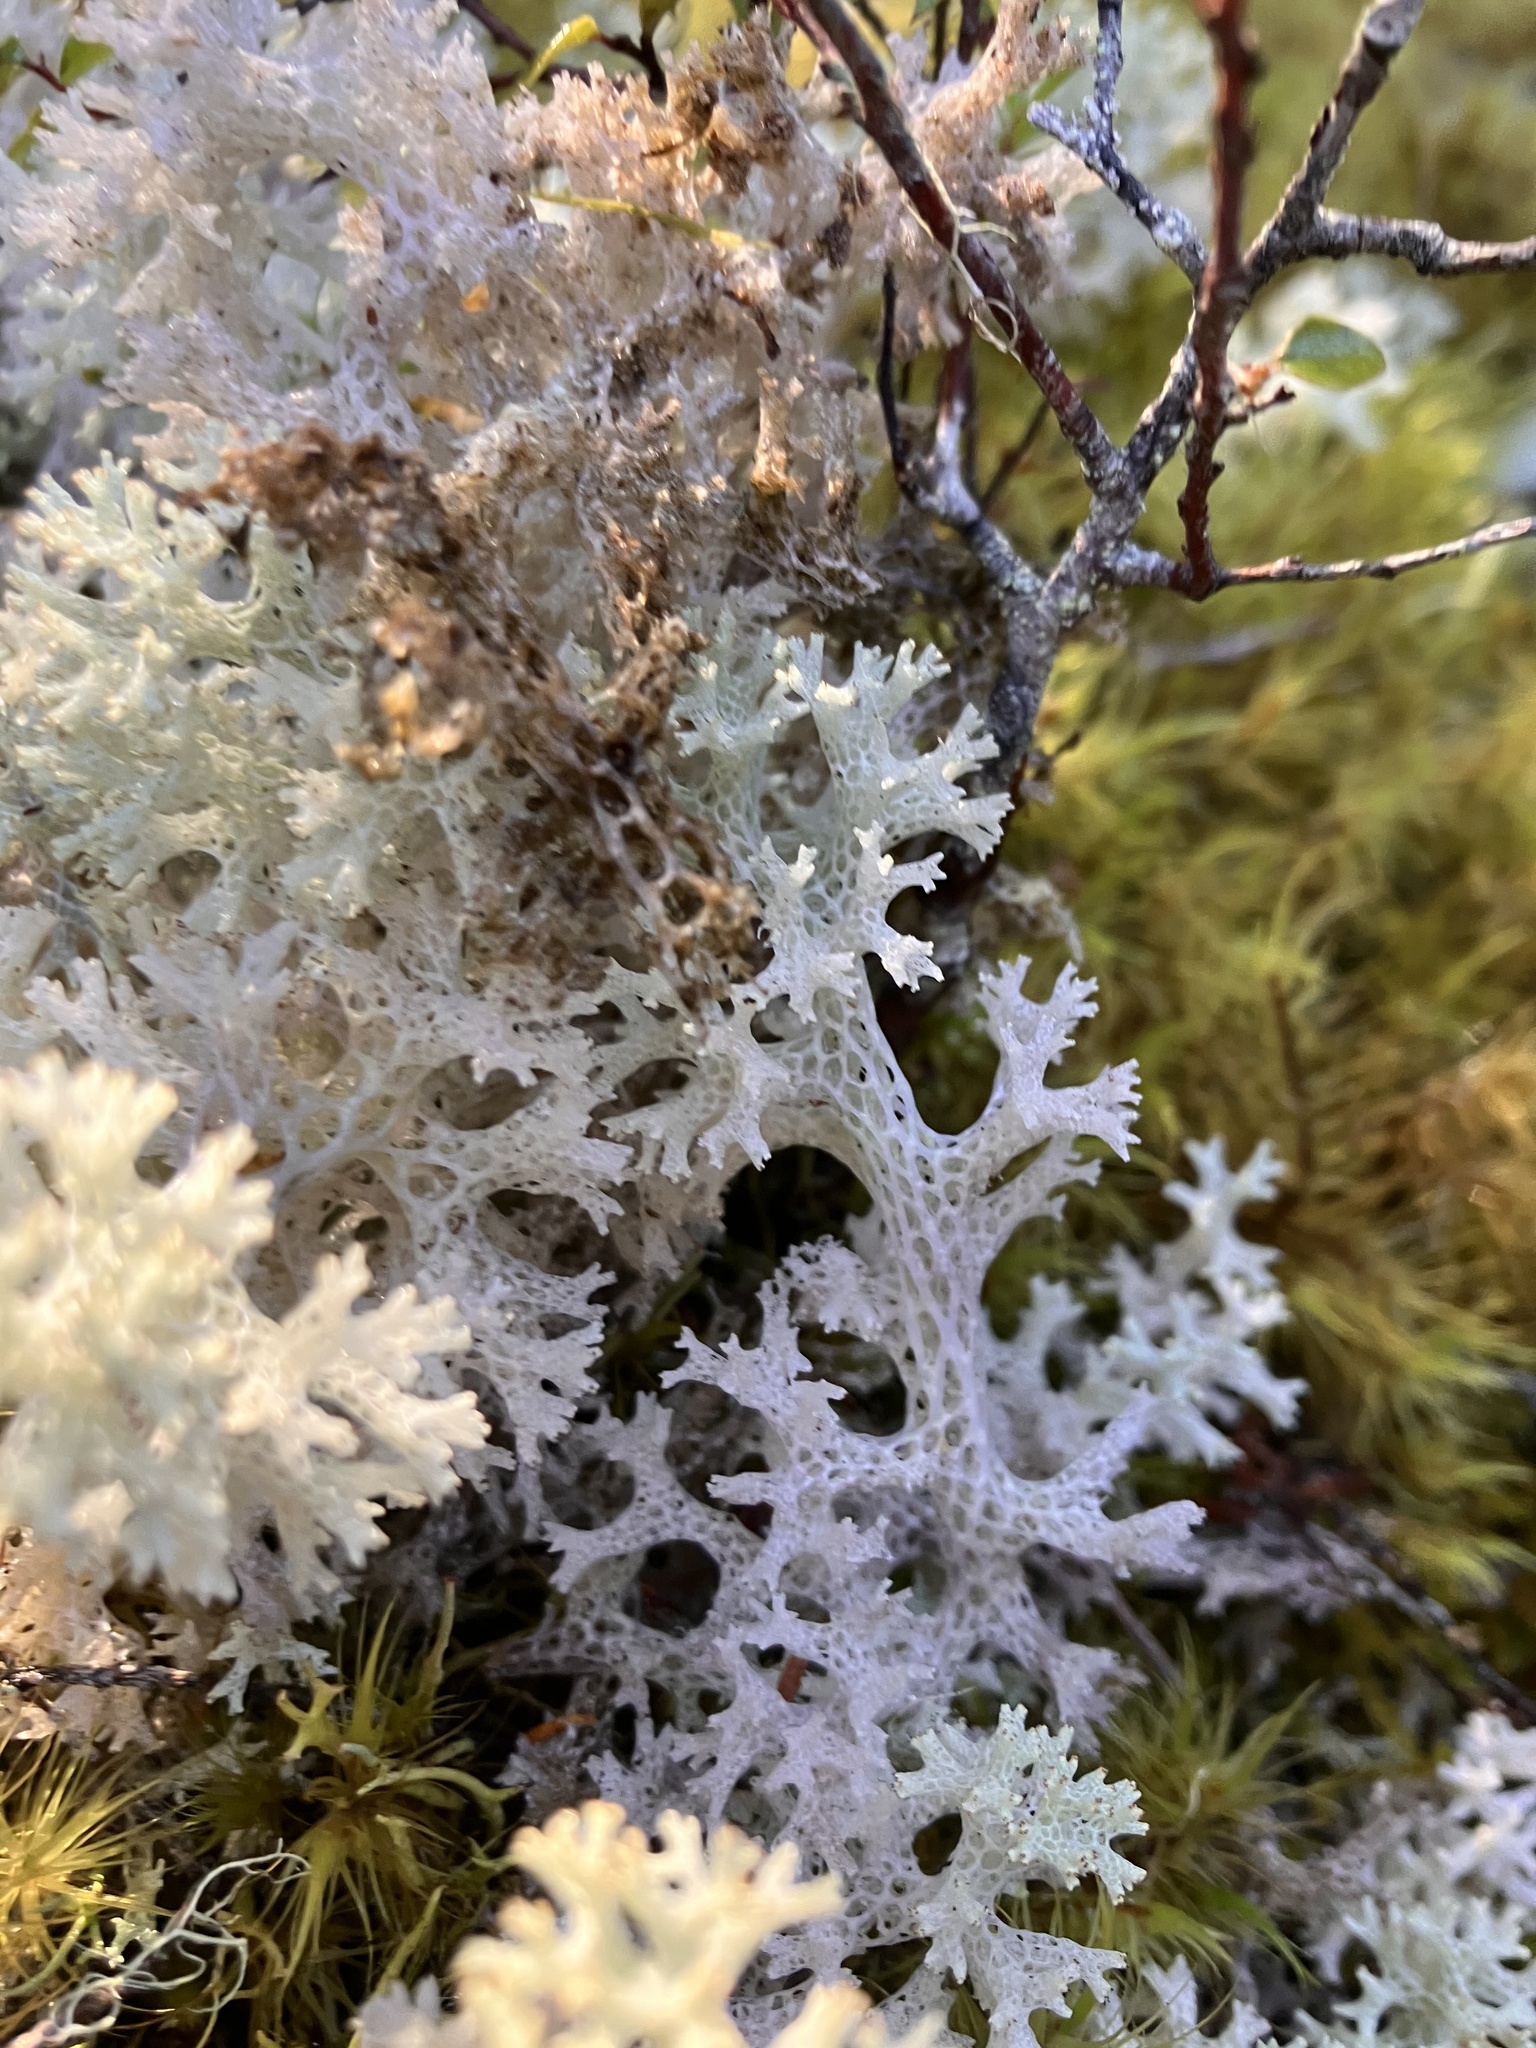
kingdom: Fungi
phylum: Ascomycota
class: Lecanoromycetes
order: Lecanorales
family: Cladoniaceae
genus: Pulchrocladia
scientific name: Pulchrocladia retipora
